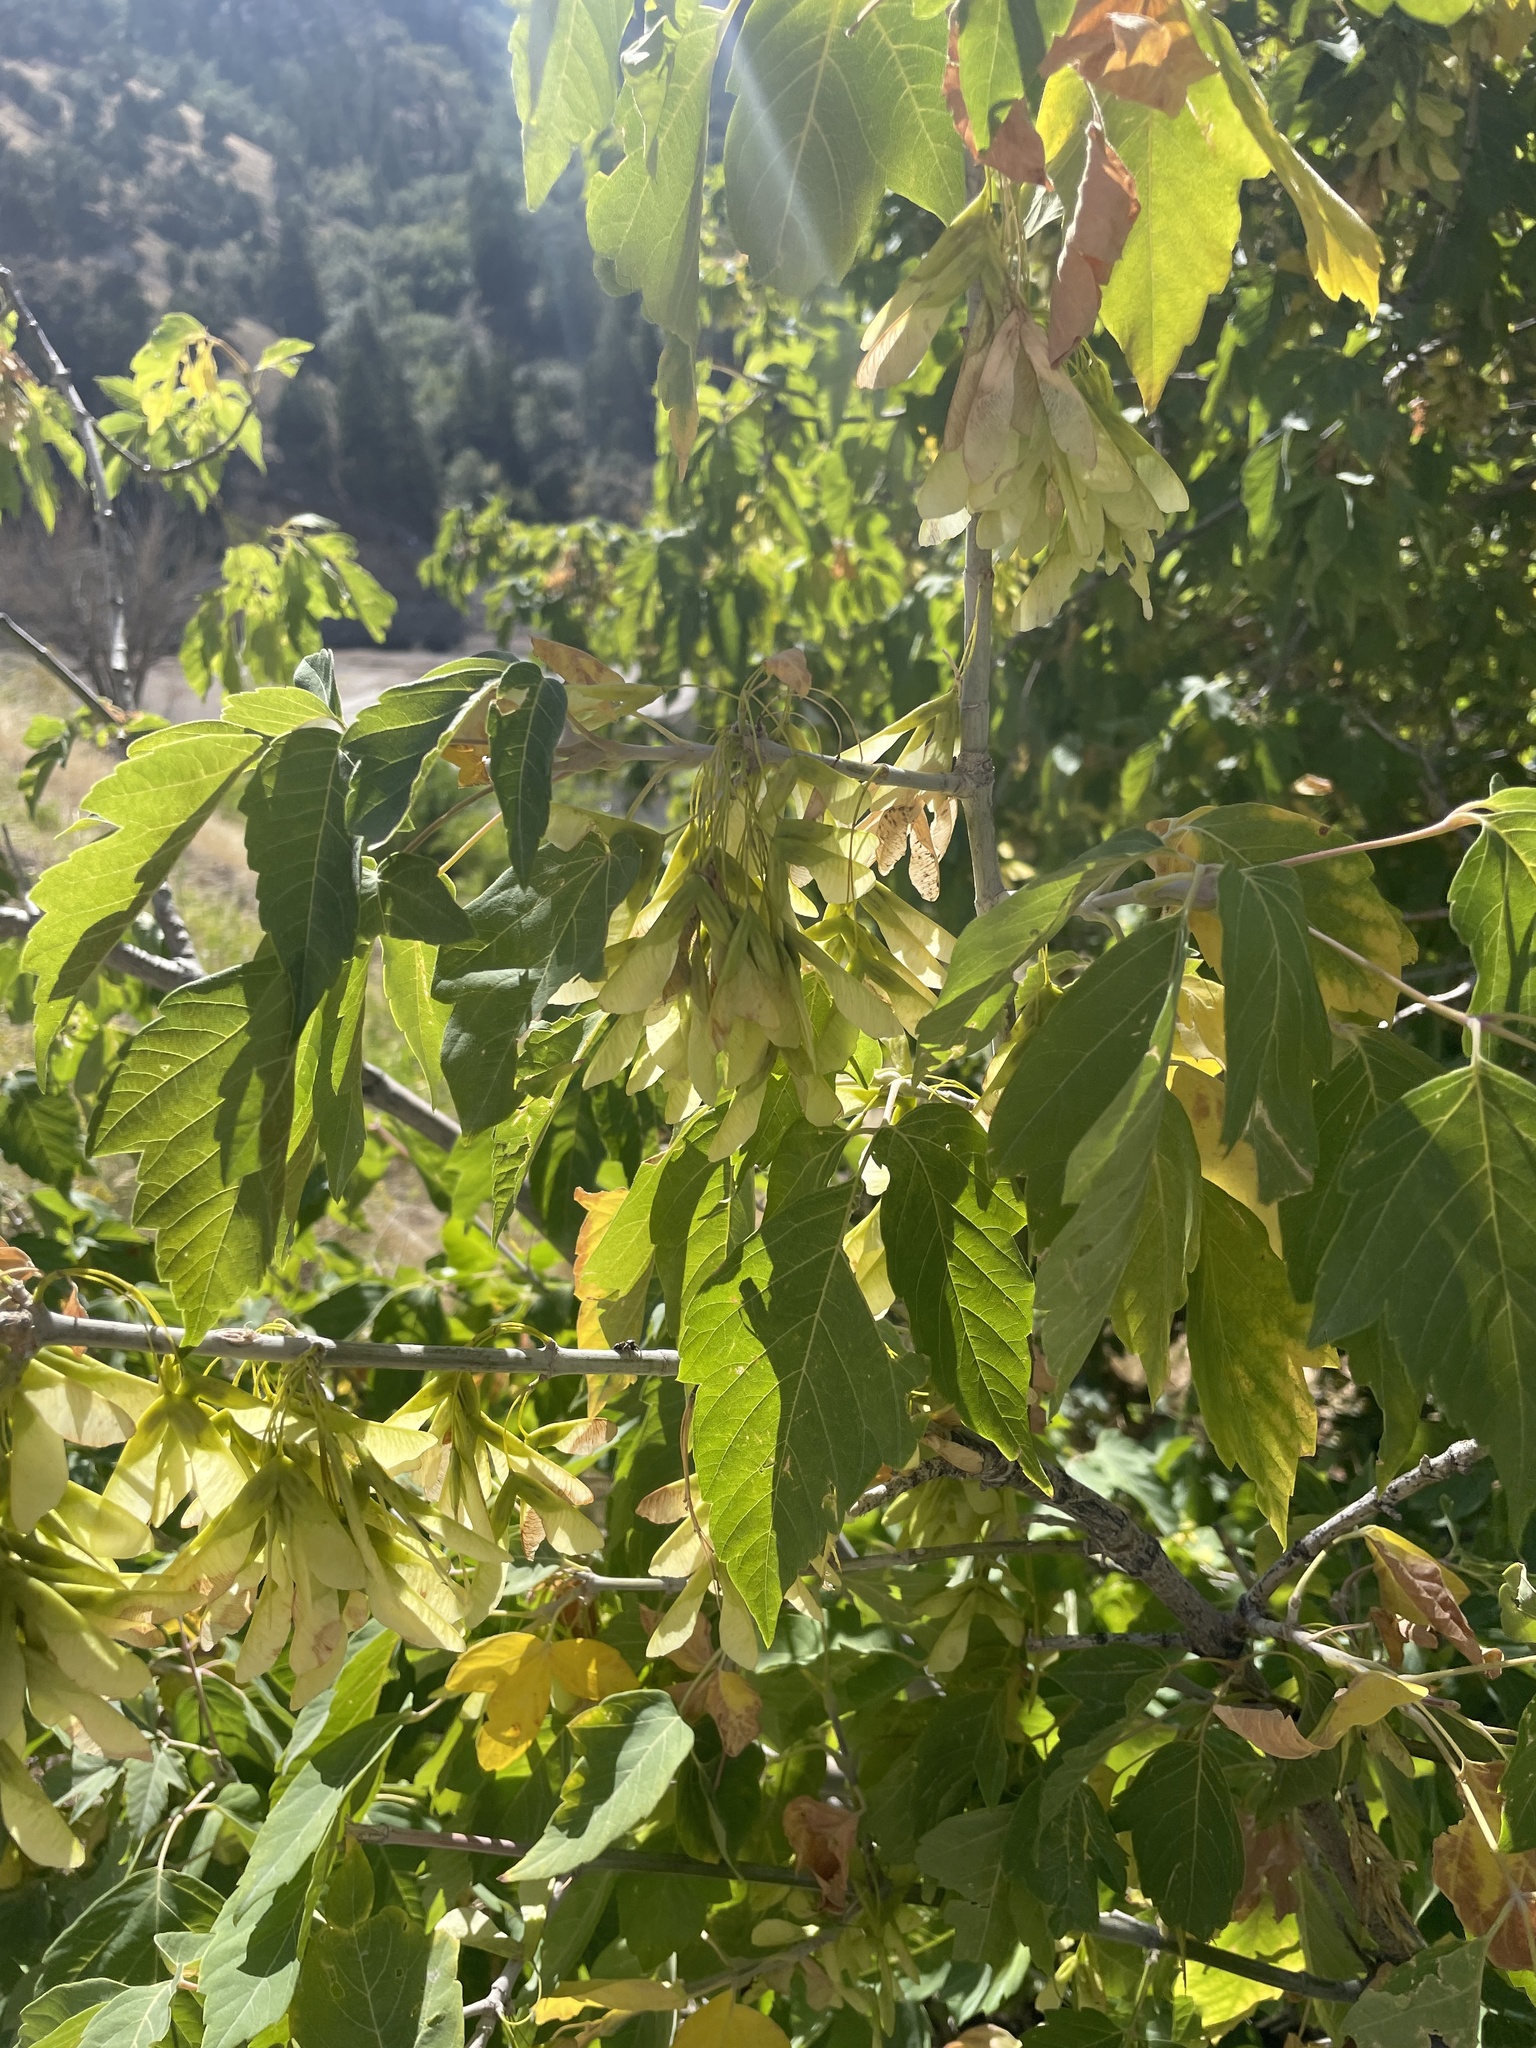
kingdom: Plantae
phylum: Tracheophyta
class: Magnoliopsida
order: Sapindales
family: Sapindaceae
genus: Acer
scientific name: Acer negundo
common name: Ashleaf maple
